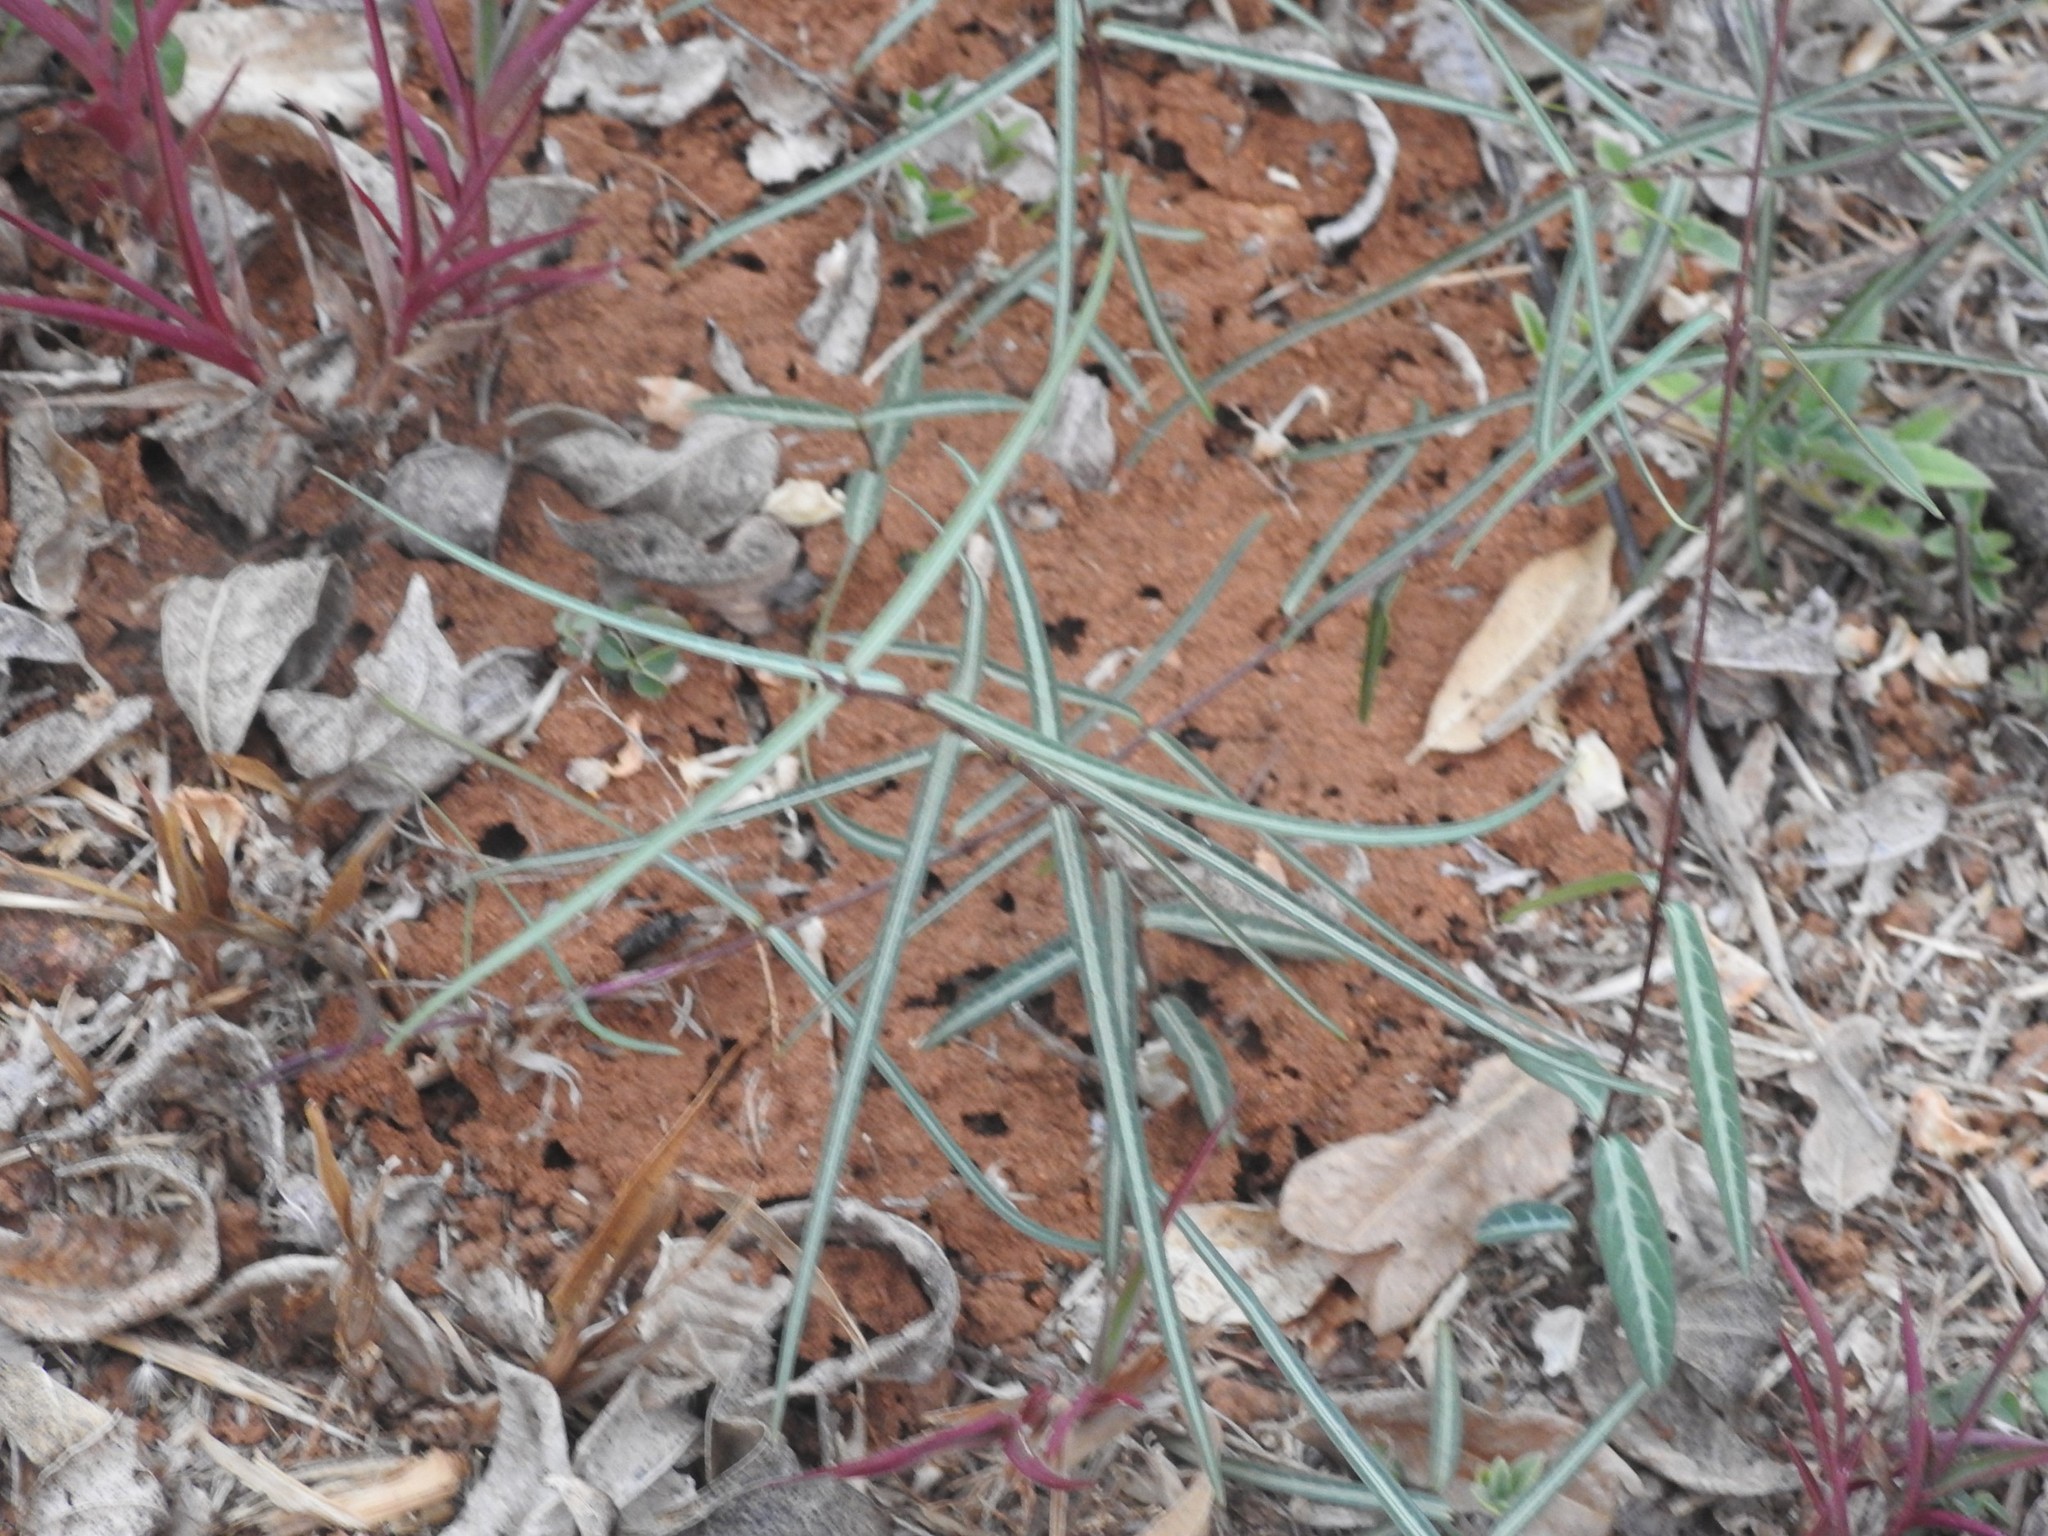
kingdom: Plantae
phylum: Tracheophyta
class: Magnoliopsida
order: Gentianales
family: Apocynaceae
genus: Hemidesmus
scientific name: Hemidesmus indicus
